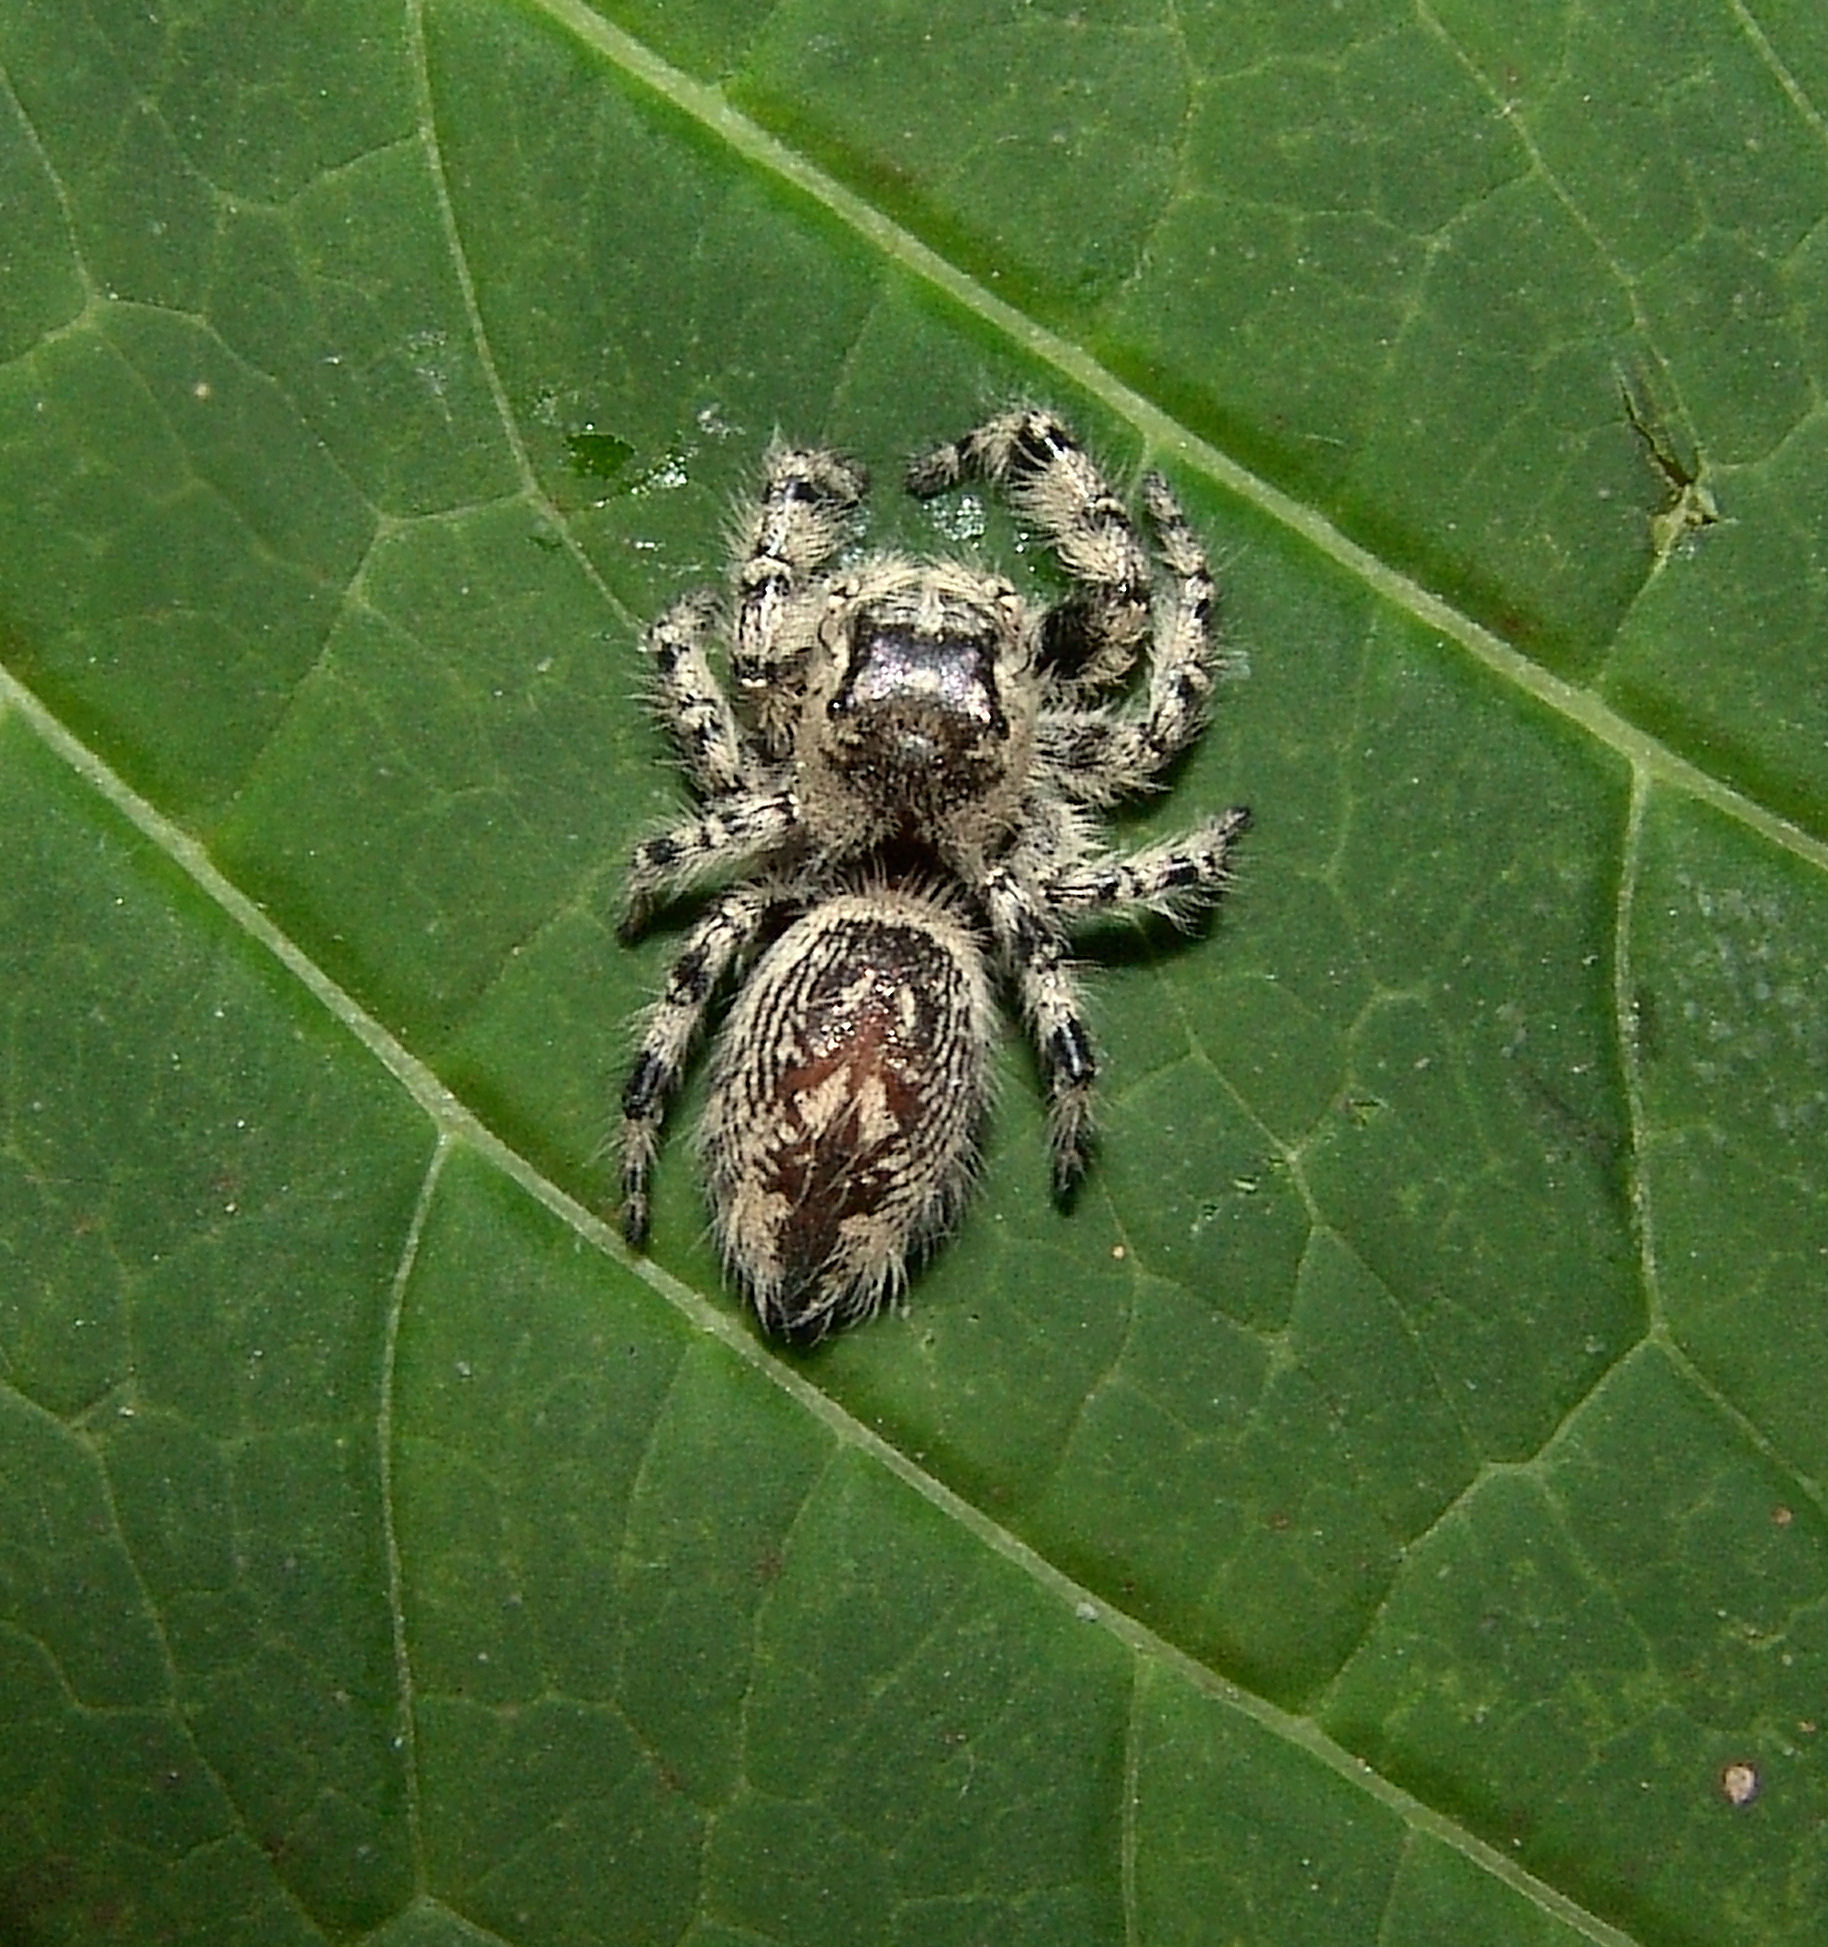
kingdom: Animalia
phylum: Arthropoda
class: Arachnida
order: Araneae
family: Salticidae
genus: Phidippus
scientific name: Phidippus otiosus
